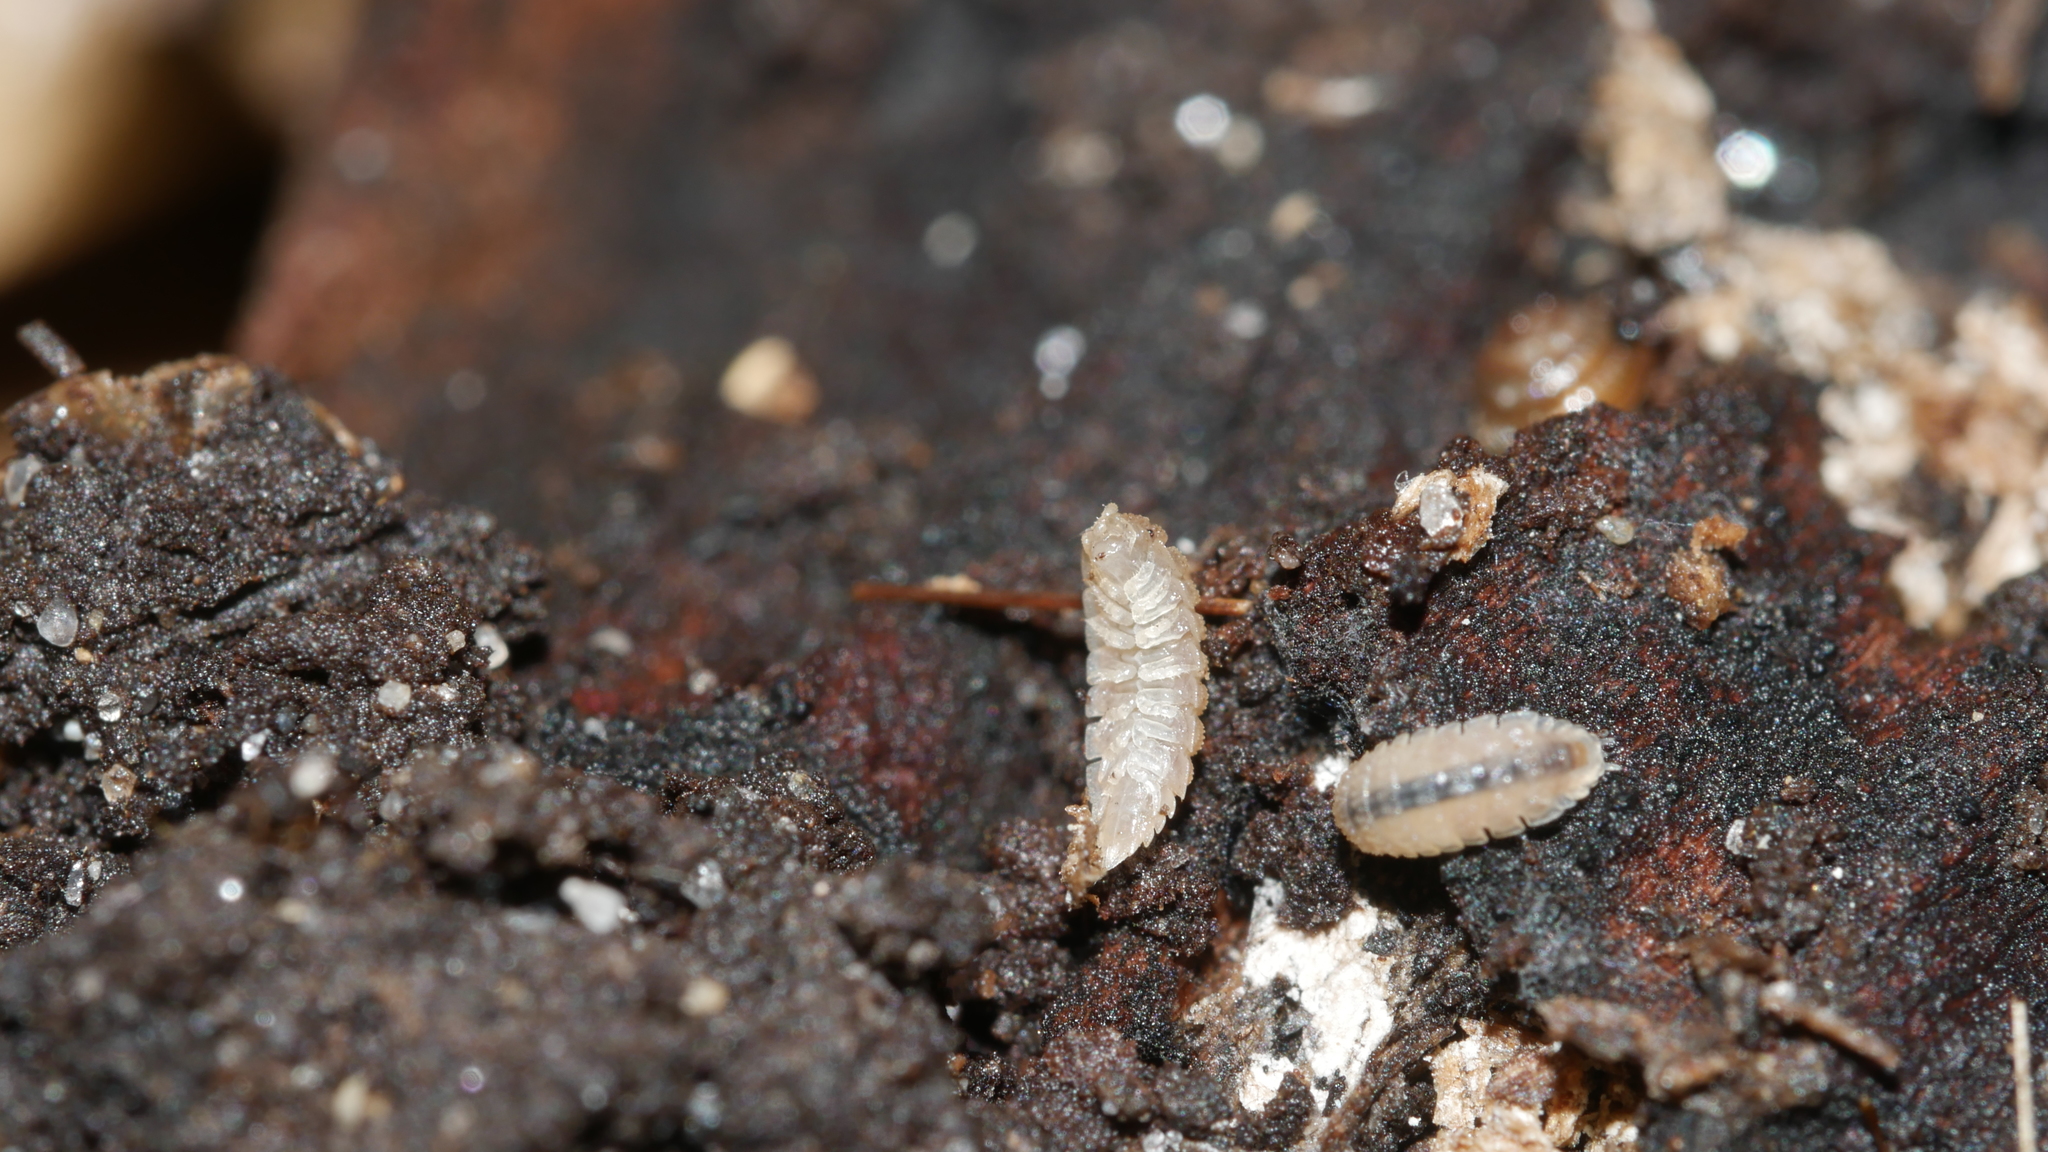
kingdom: Animalia
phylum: Arthropoda
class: Malacostraca
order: Isopoda
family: Trichoniscidae
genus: Haplophthalmus
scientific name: Haplophthalmus danicus
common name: Pillbug
